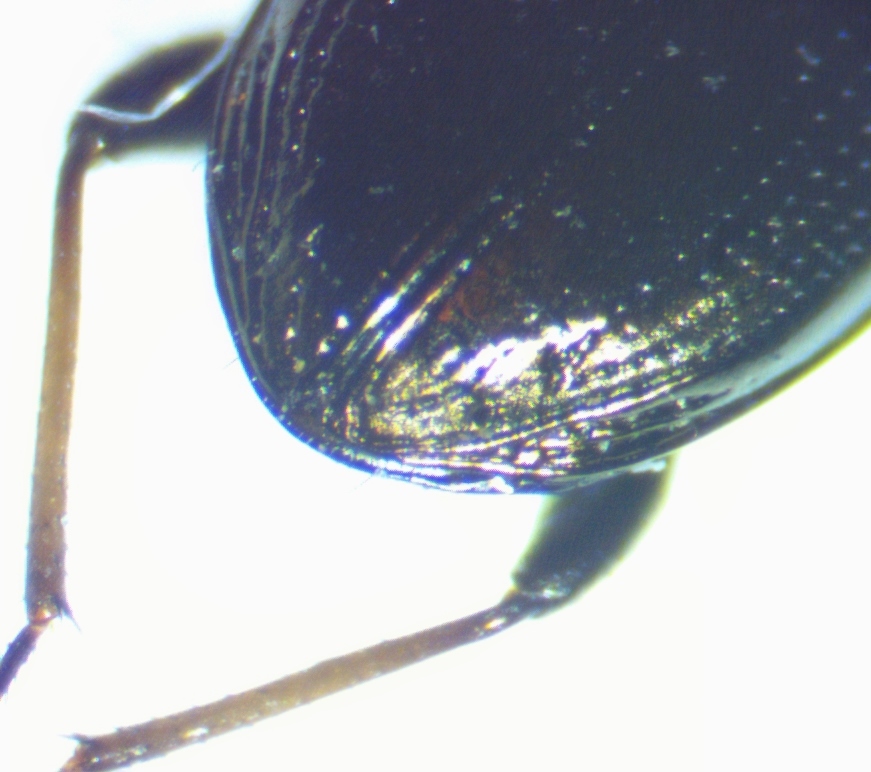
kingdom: Animalia
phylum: Arthropoda
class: Insecta
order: Coleoptera
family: Carabidae
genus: Notiophilus
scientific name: Notiophilus novemstriatus
